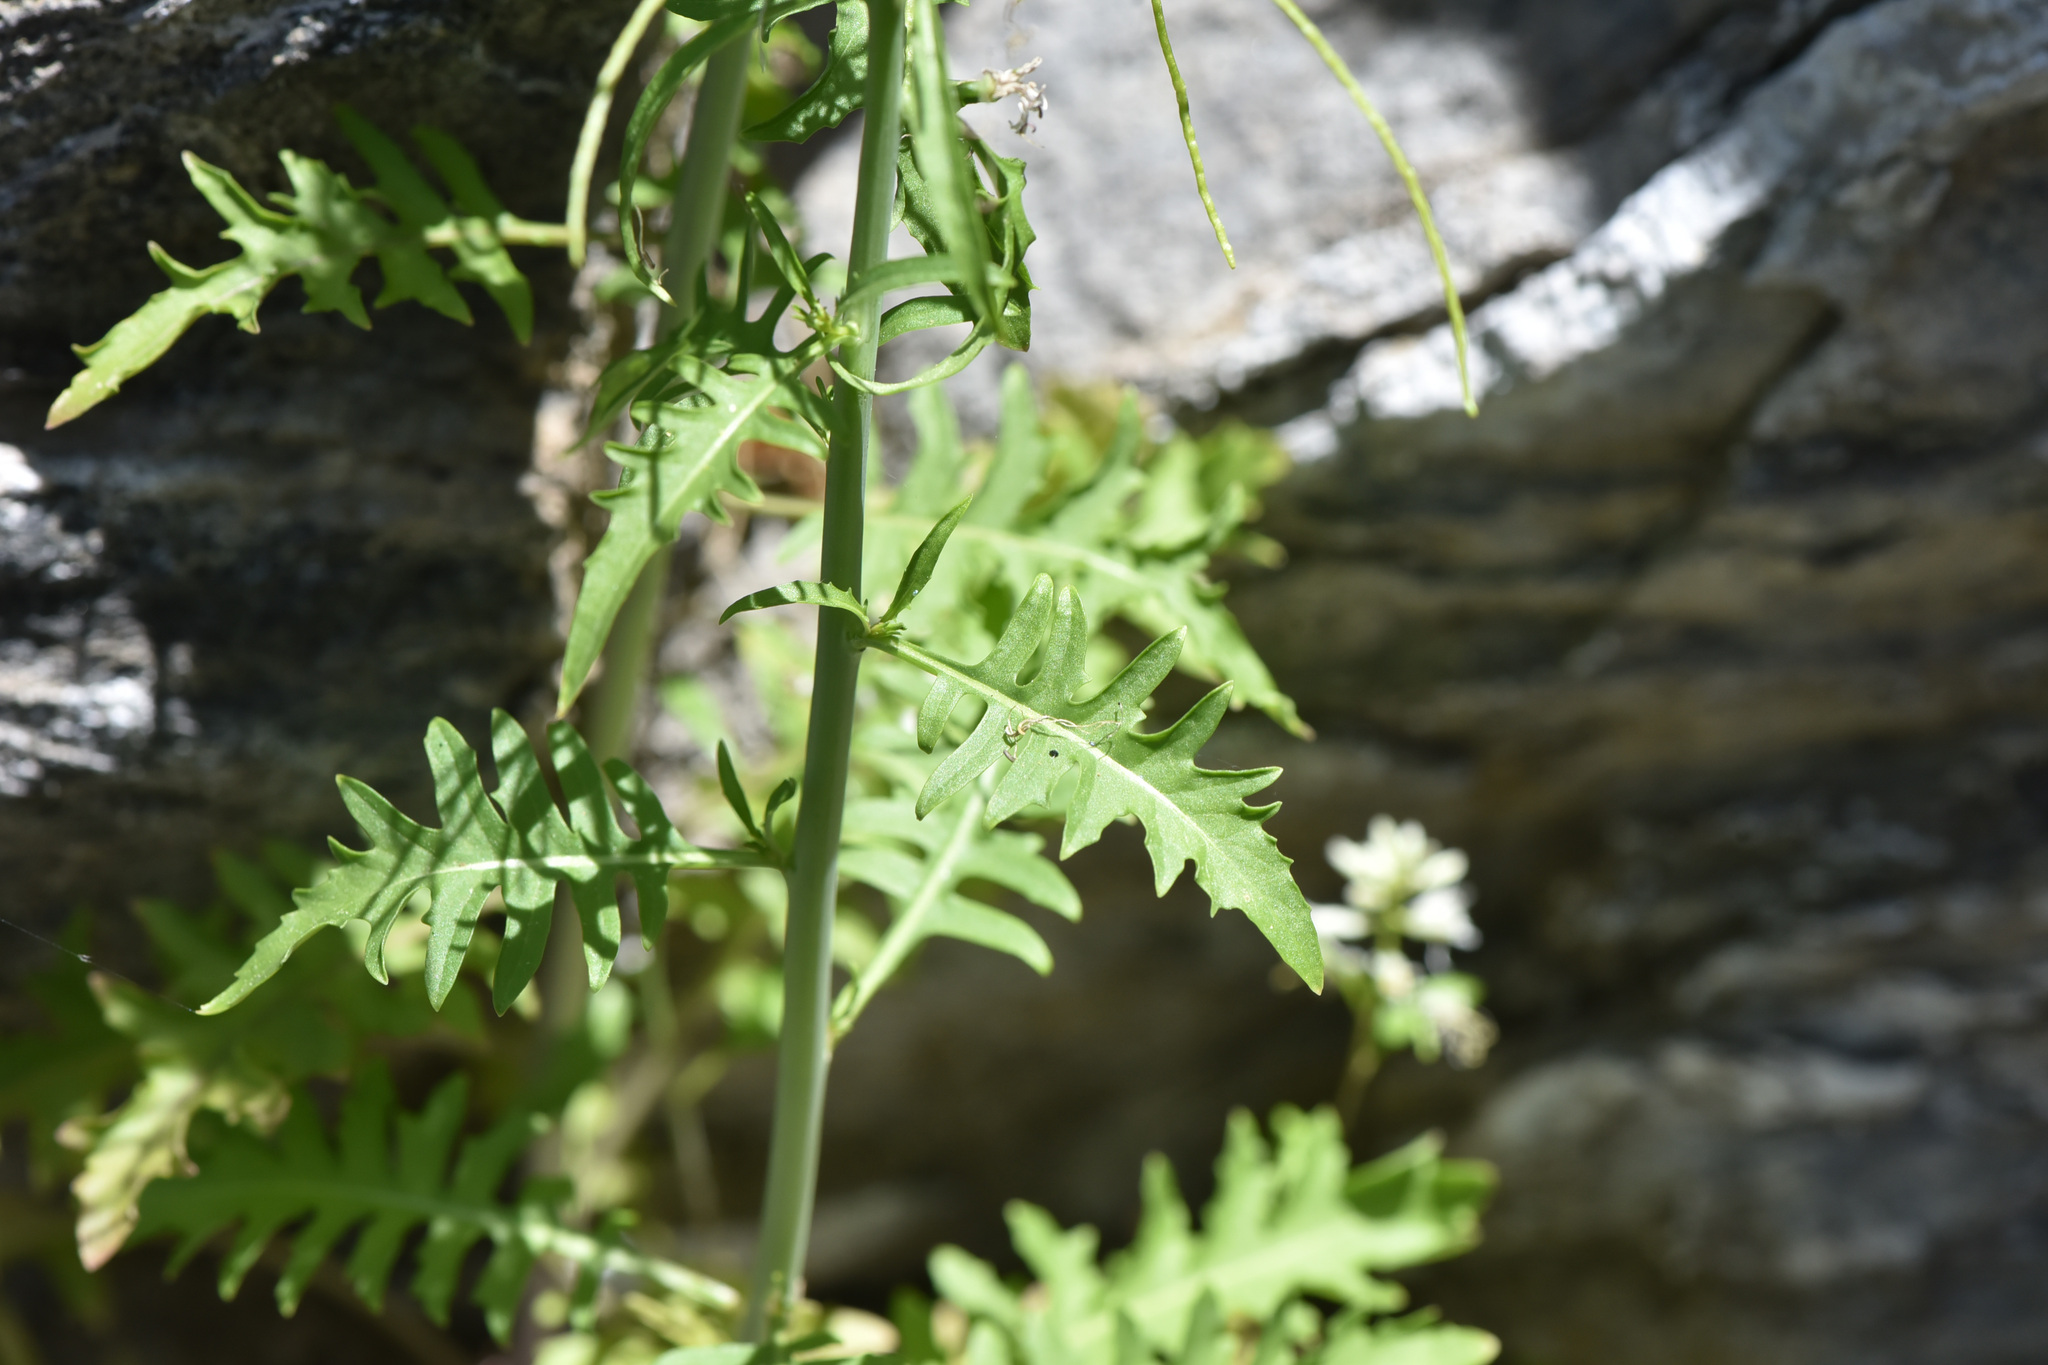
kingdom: Plantae
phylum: Tracheophyta
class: Magnoliopsida
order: Brassicales
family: Brassicaceae
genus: Thelypodium
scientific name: Thelypodium laciniatum
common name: Cut-leaved thelypody
